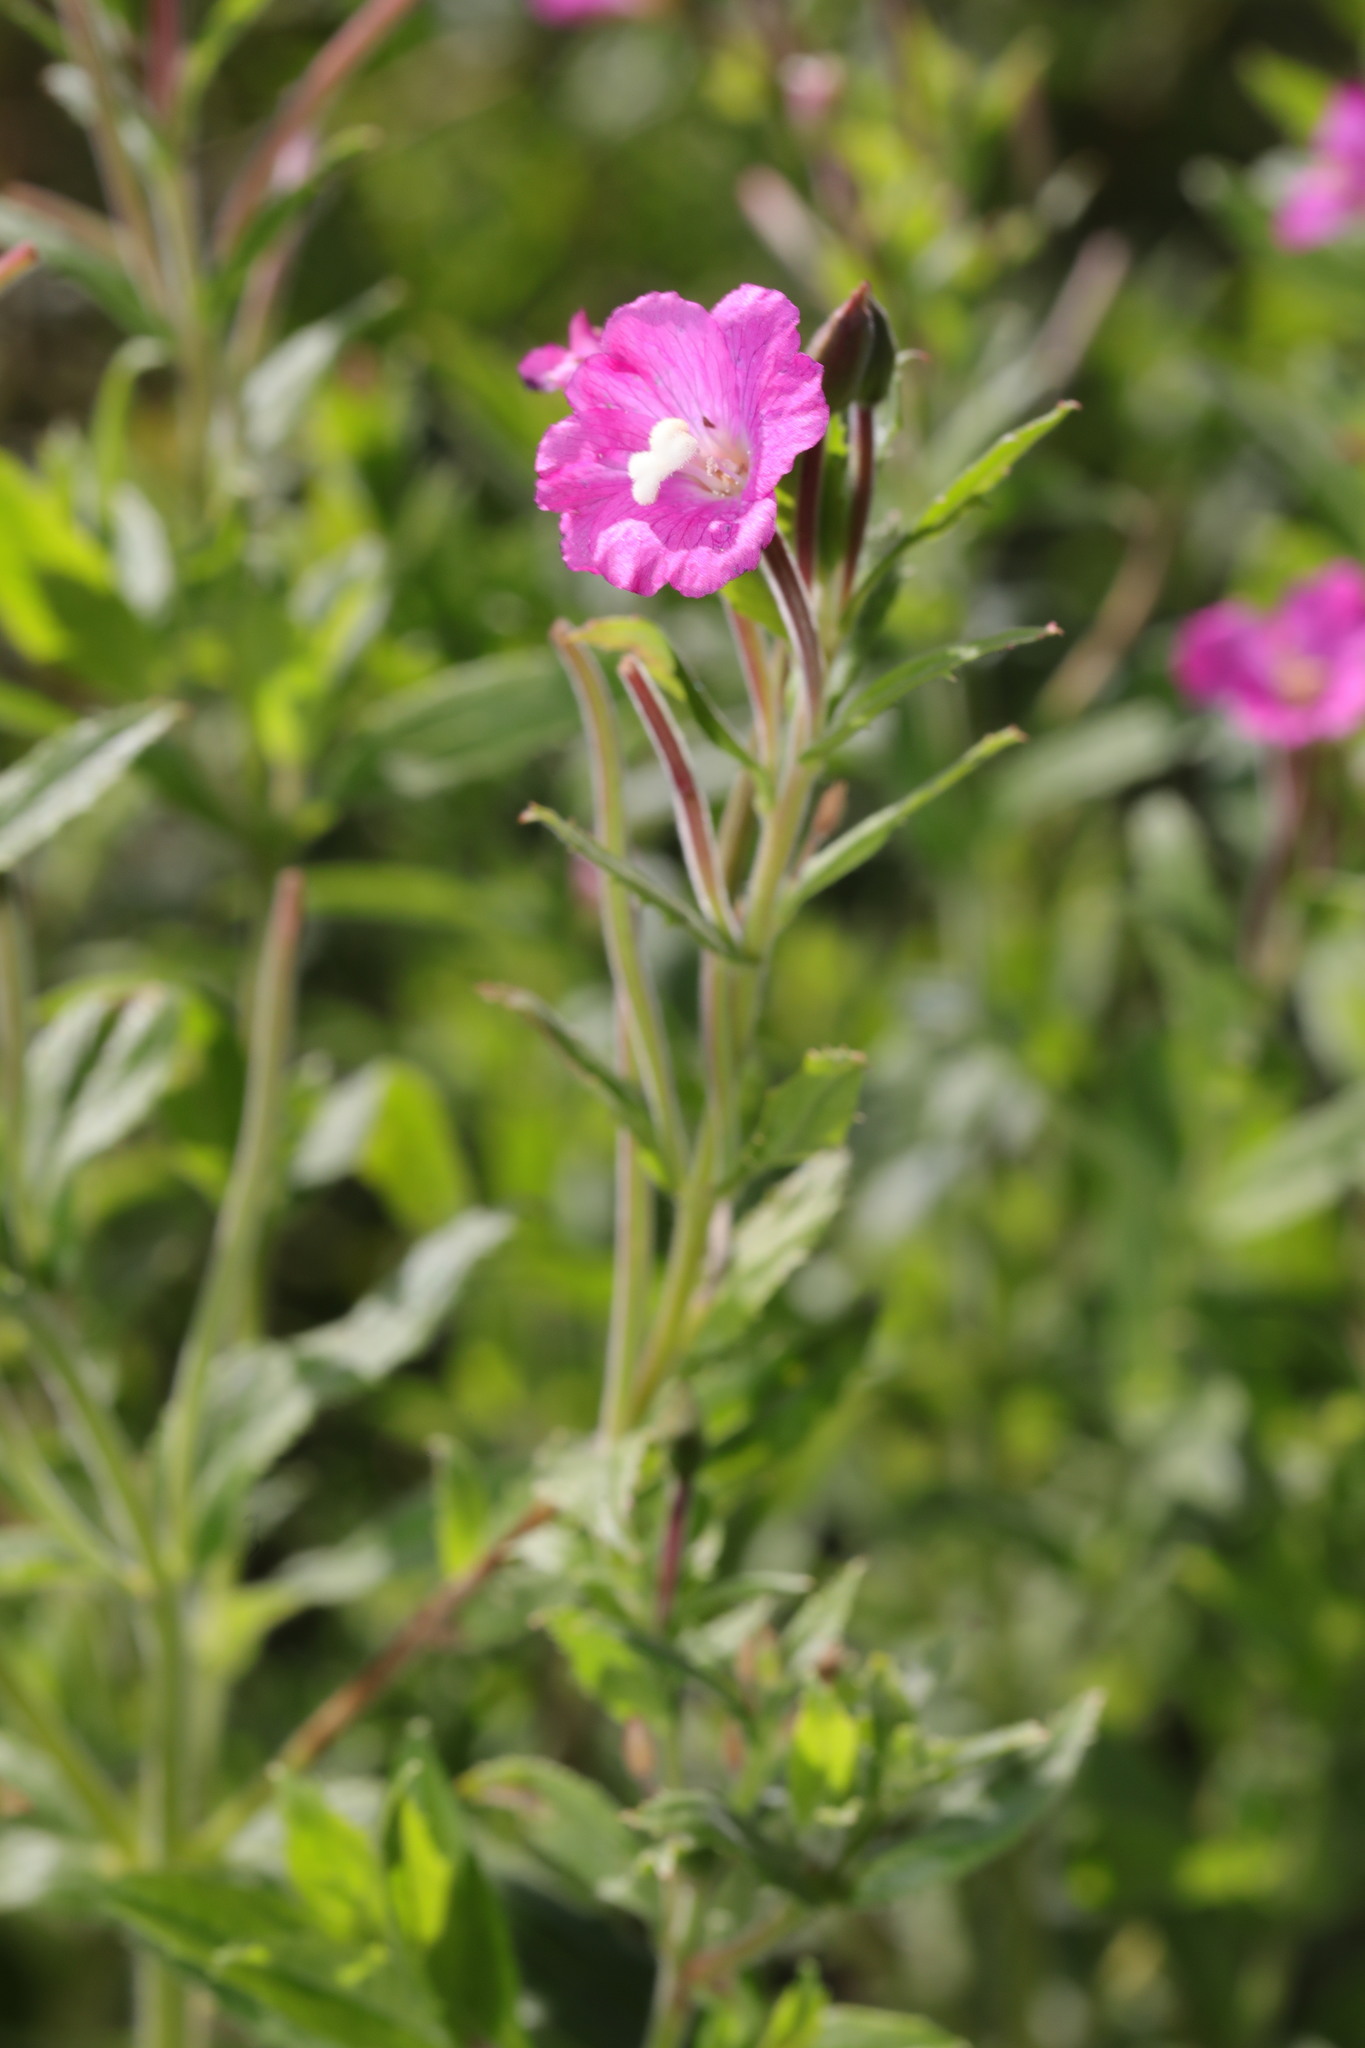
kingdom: Plantae
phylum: Tracheophyta
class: Magnoliopsida
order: Myrtales
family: Onagraceae
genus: Epilobium
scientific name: Epilobium hirsutum
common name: Great willowherb
